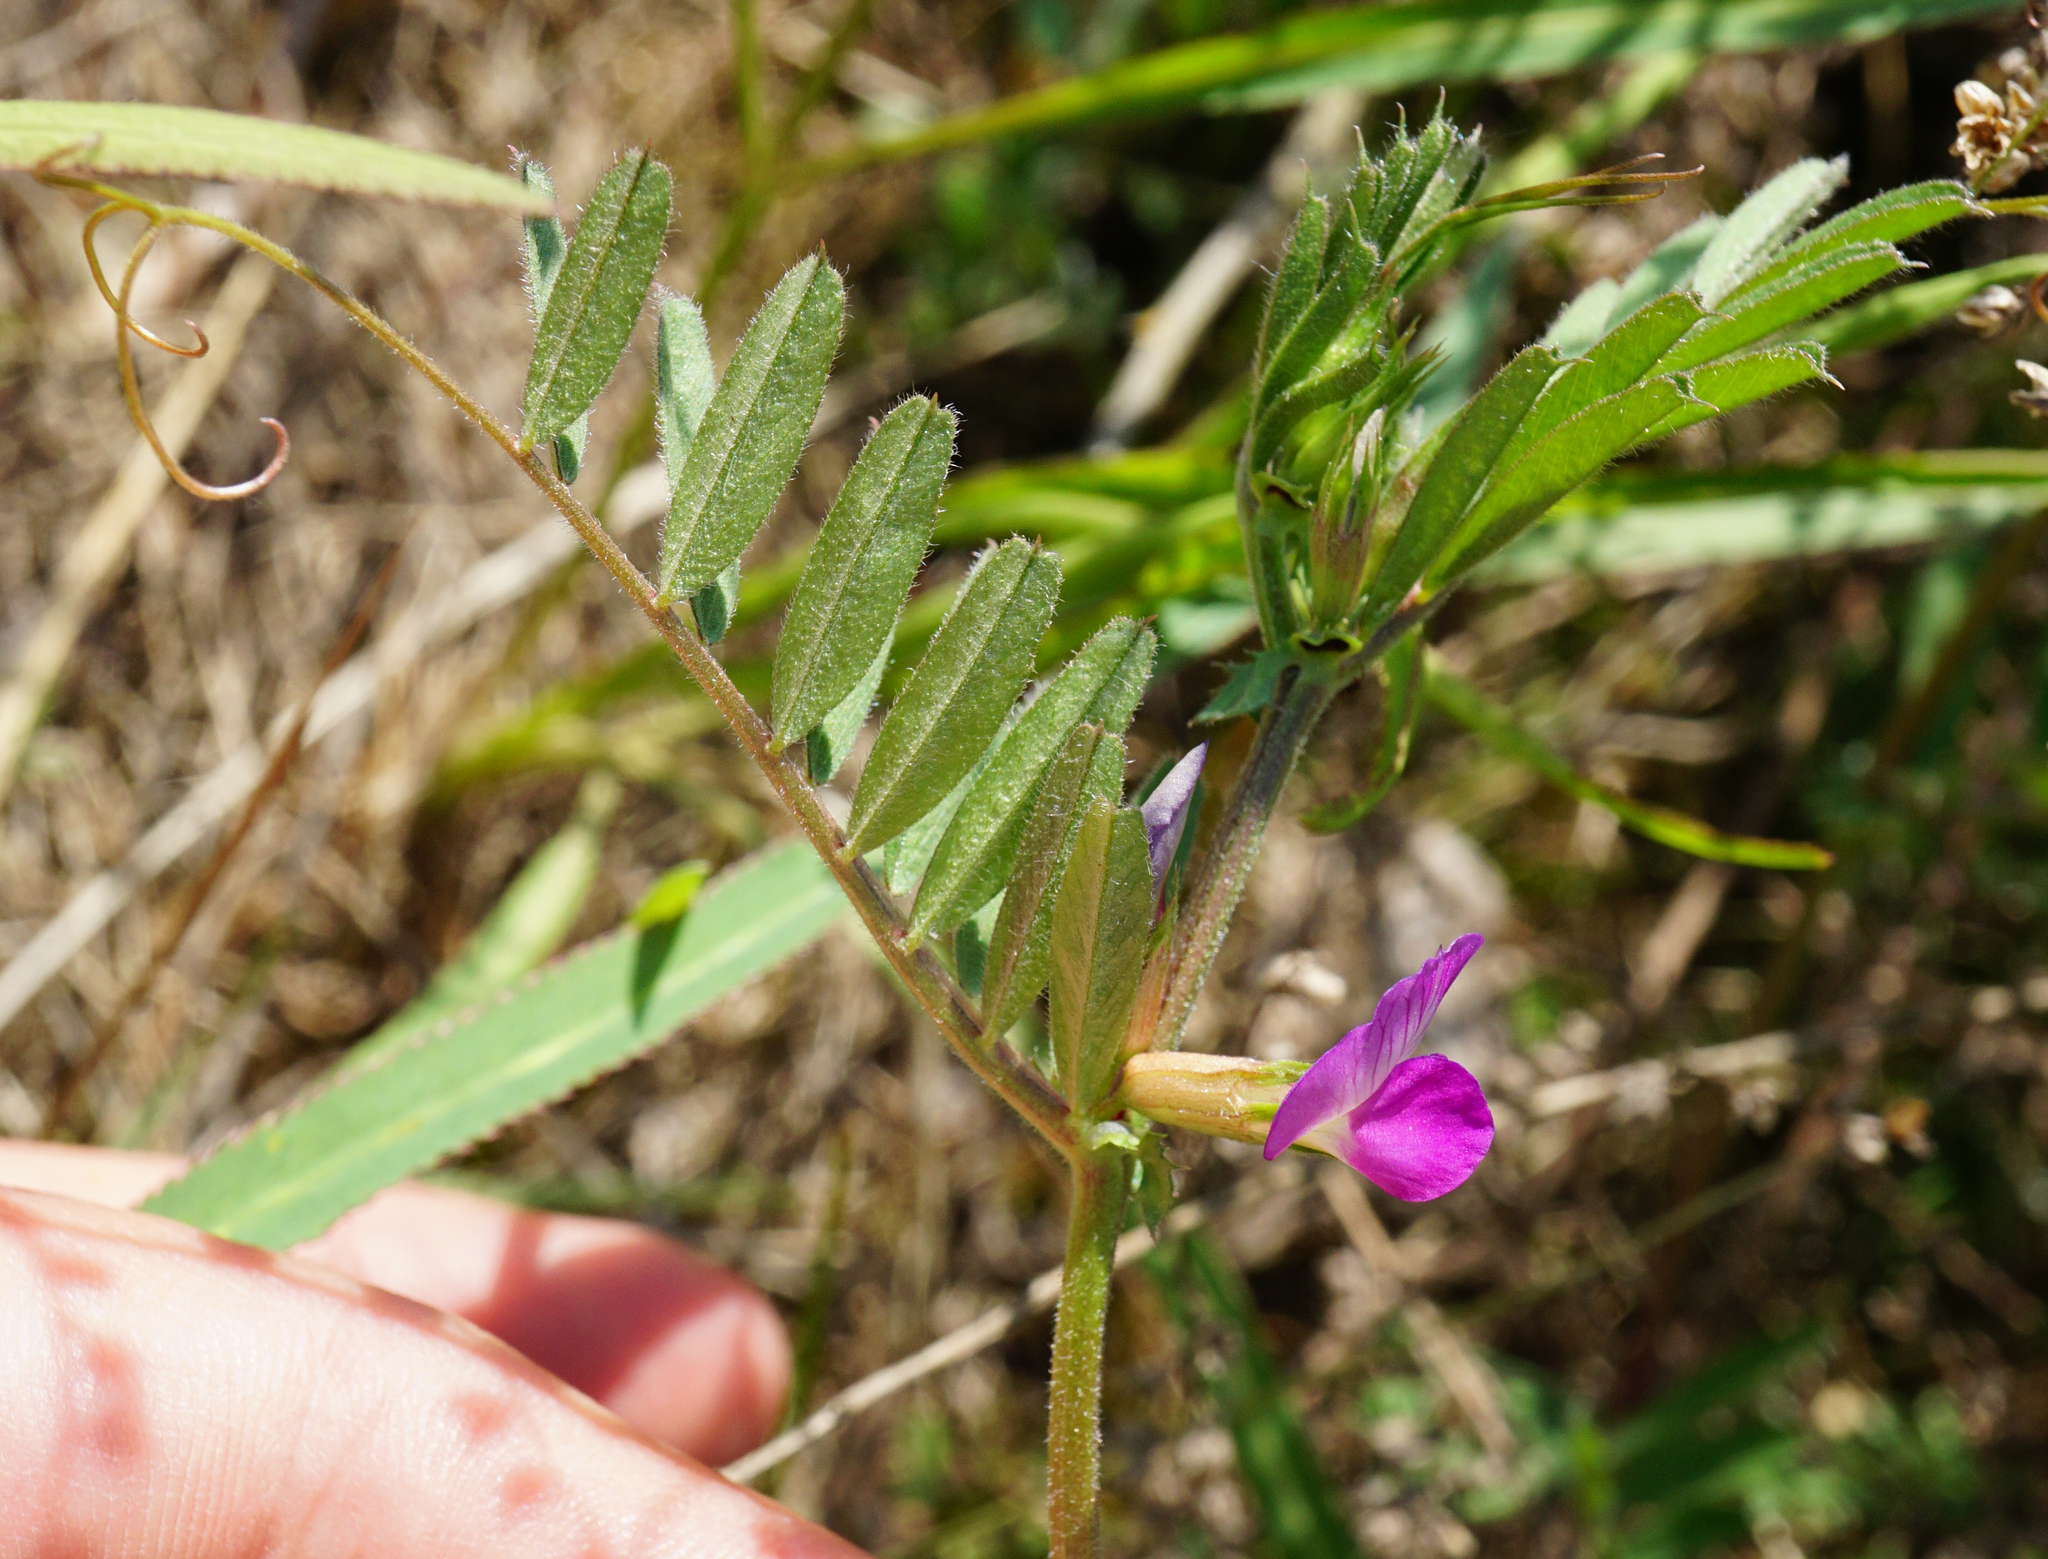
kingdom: Plantae
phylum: Tracheophyta
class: Magnoliopsida
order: Fabales
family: Fabaceae
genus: Vicia
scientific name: Vicia sativa
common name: Garden vetch
